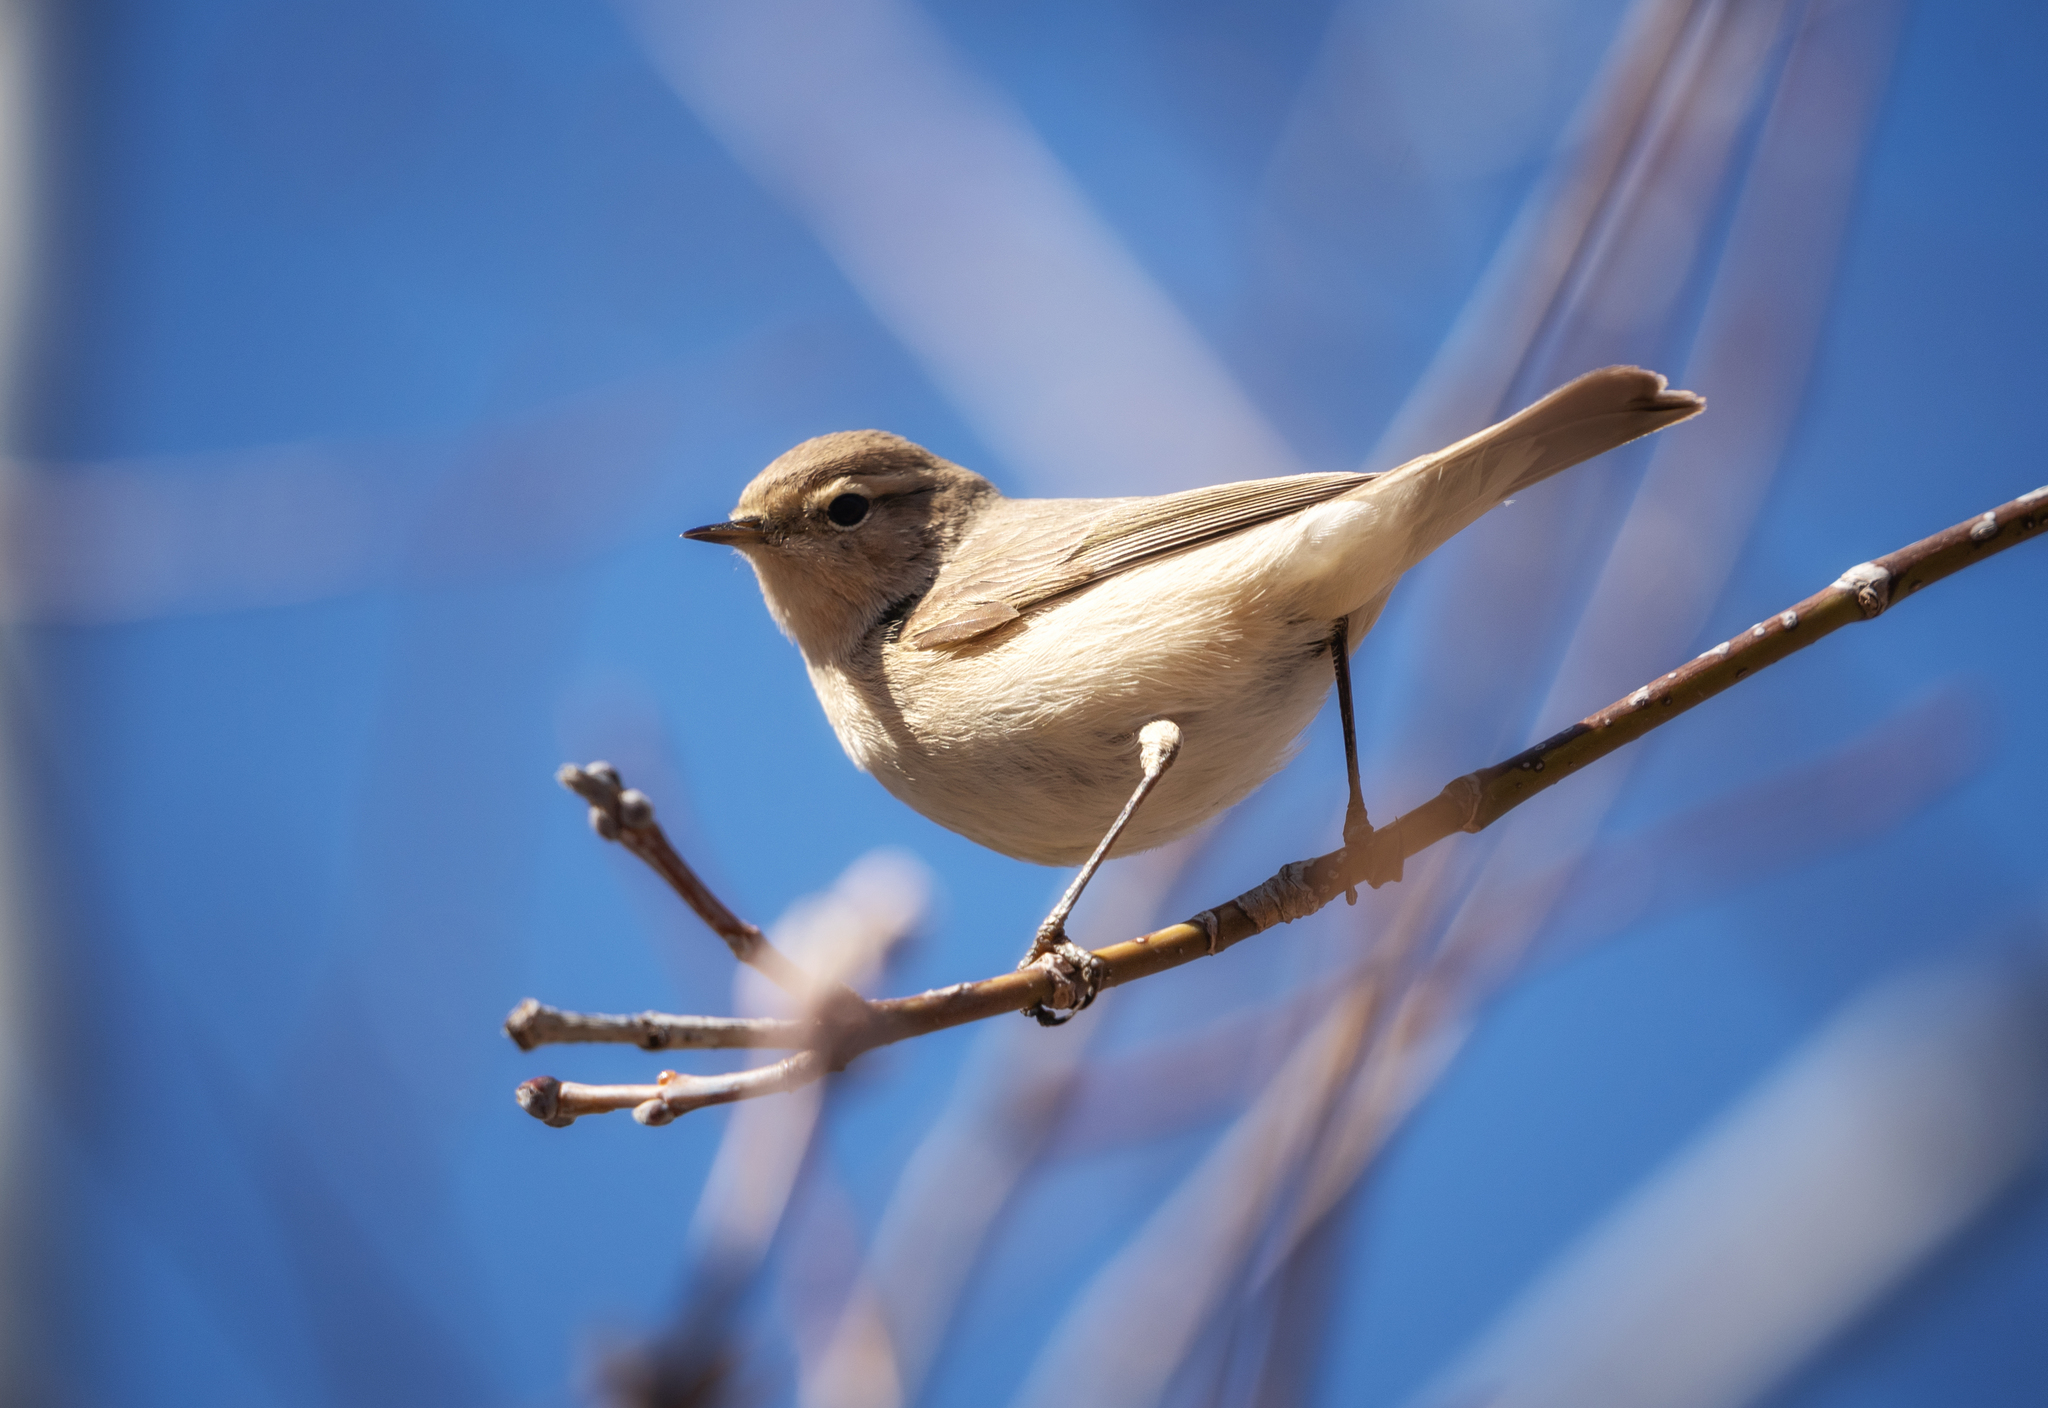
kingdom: Animalia
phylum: Chordata
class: Aves
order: Passeriformes
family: Phylloscopidae
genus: Phylloscopus
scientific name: Phylloscopus collybita
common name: Common chiffchaff
